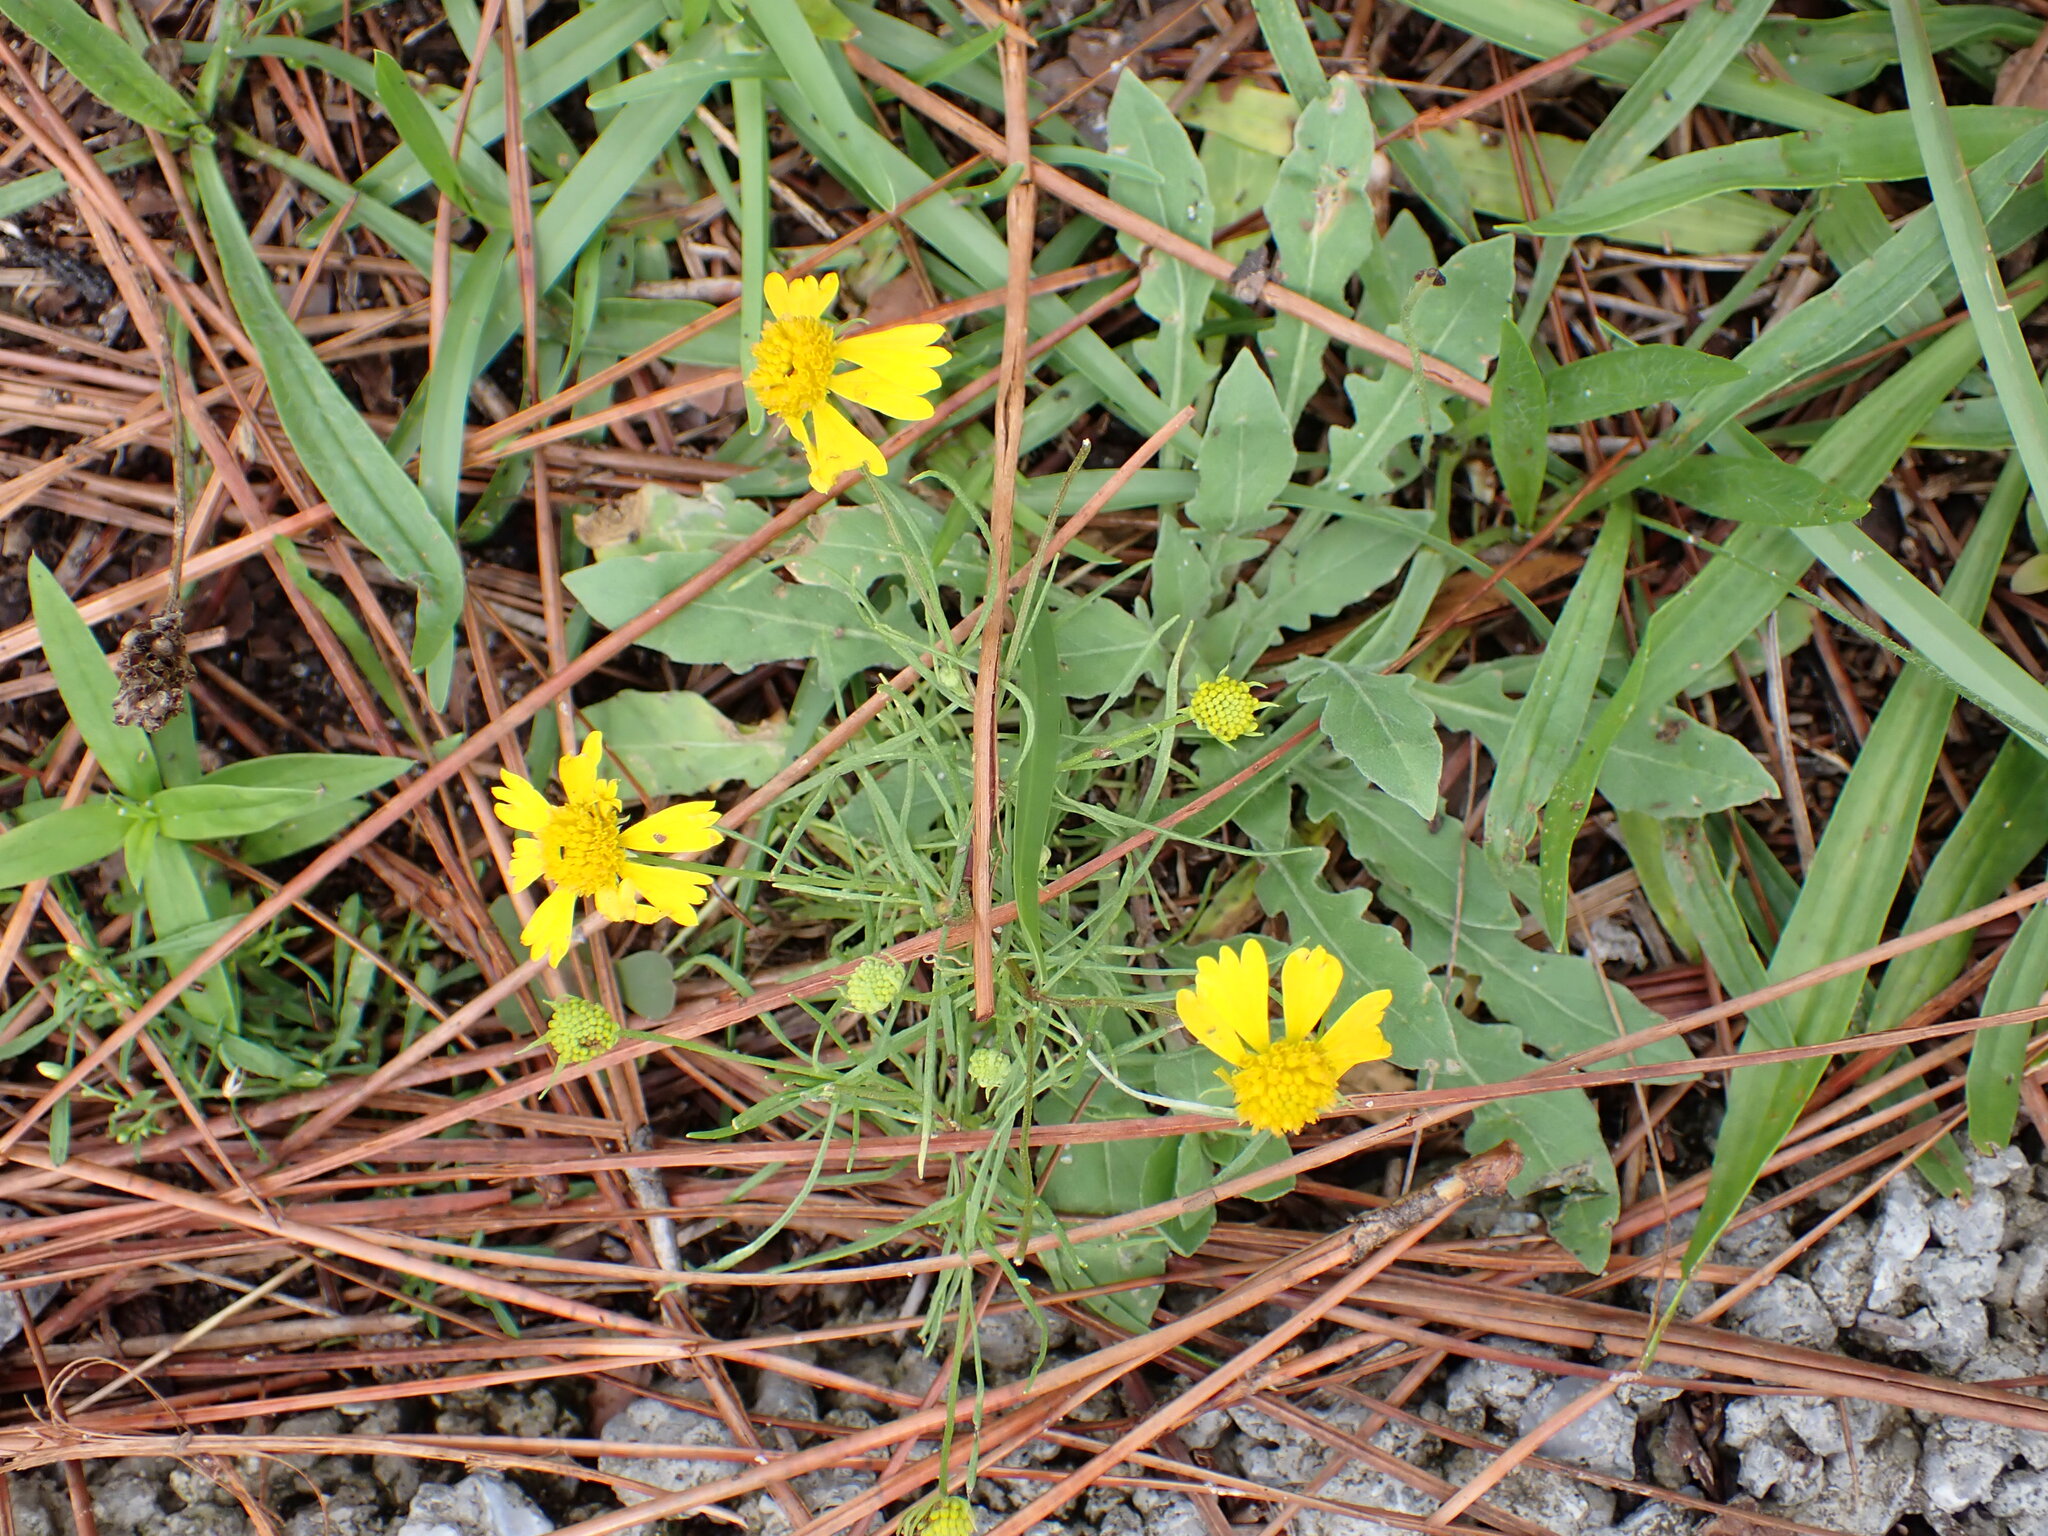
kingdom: Plantae
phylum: Tracheophyta
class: Magnoliopsida
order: Asterales
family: Asteraceae
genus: Helenium
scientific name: Helenium amarum
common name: Bitter sneezeweed
